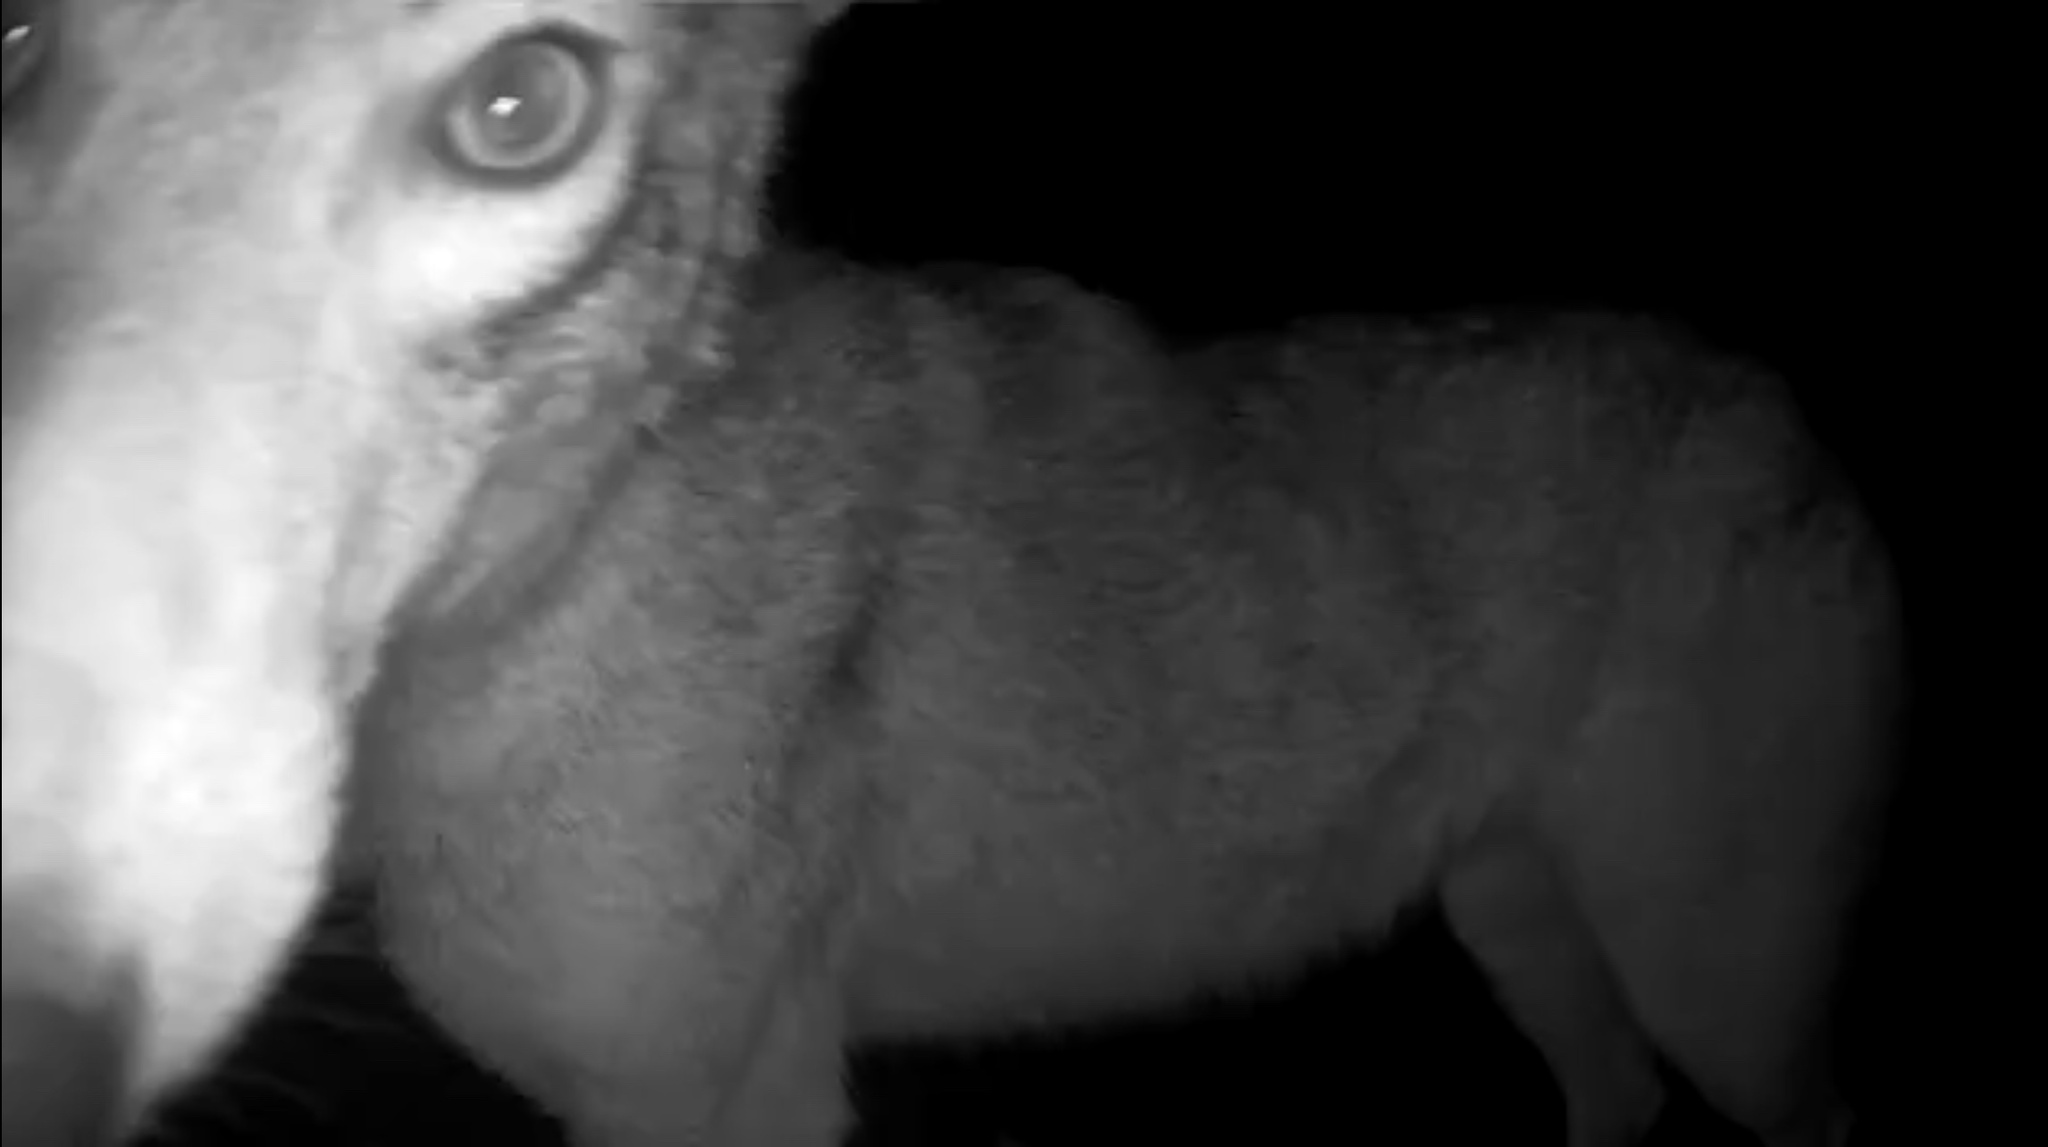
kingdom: Animalia
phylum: Chordata
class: Mammalia
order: Carnivora
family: Canidae
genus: Canis
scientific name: Canis latrans
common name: Coyote
